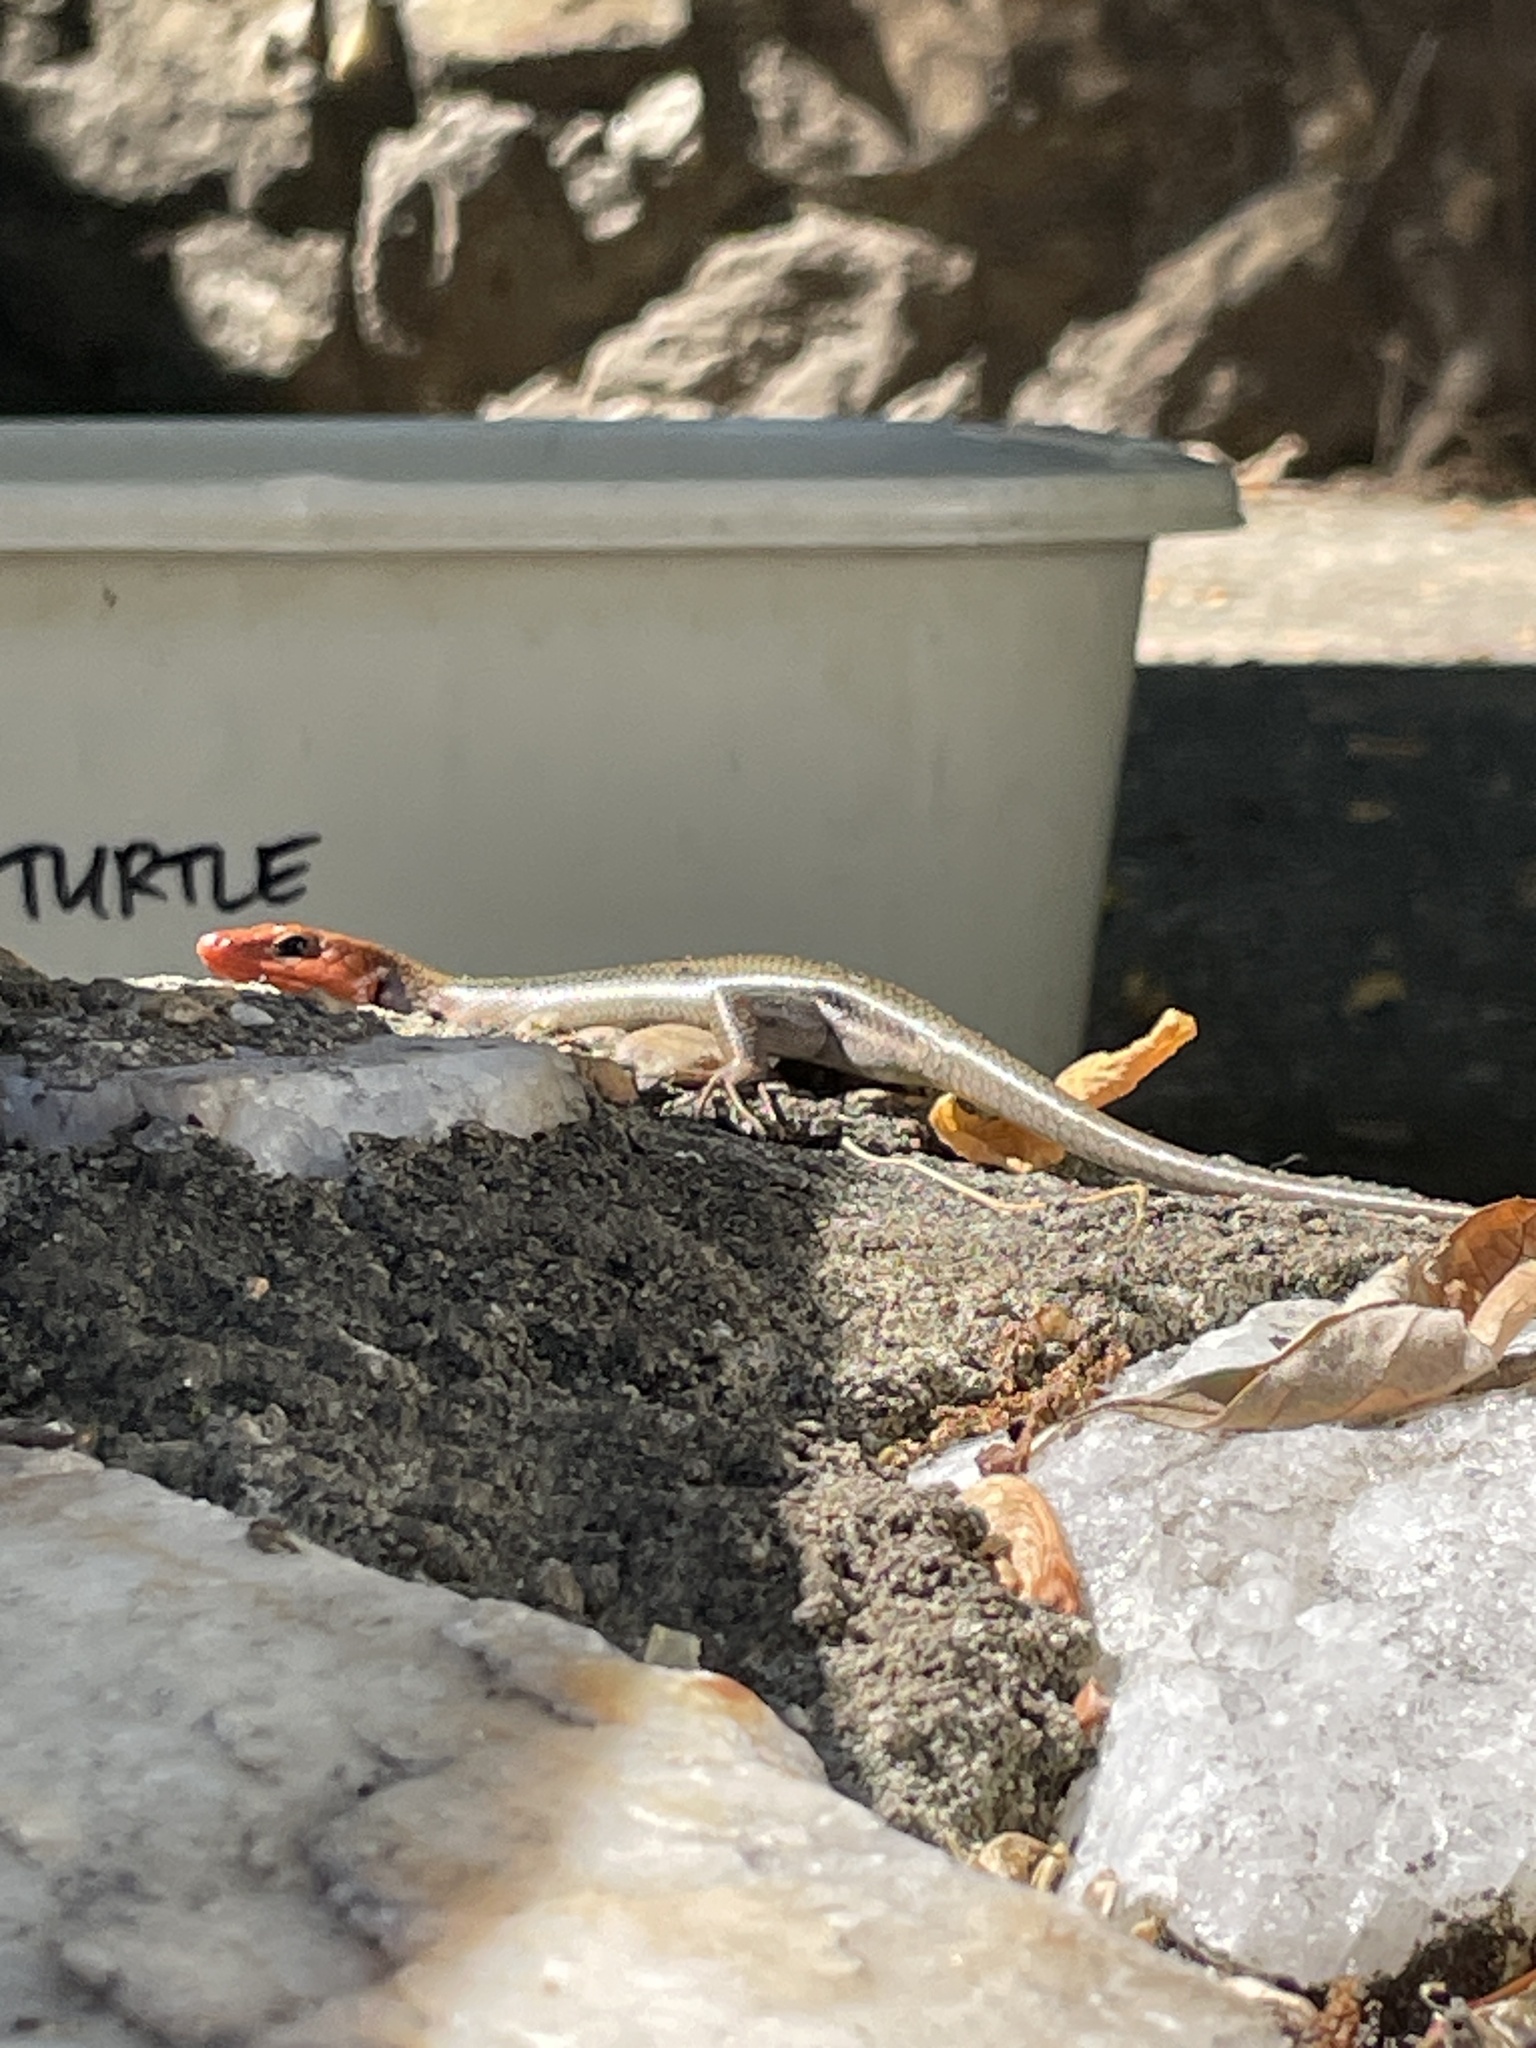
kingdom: Animalia
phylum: Chordata
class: Squamata
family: Scincidae
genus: Plestiodon
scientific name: Plestiodon fasciatus
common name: Five-lined skink
